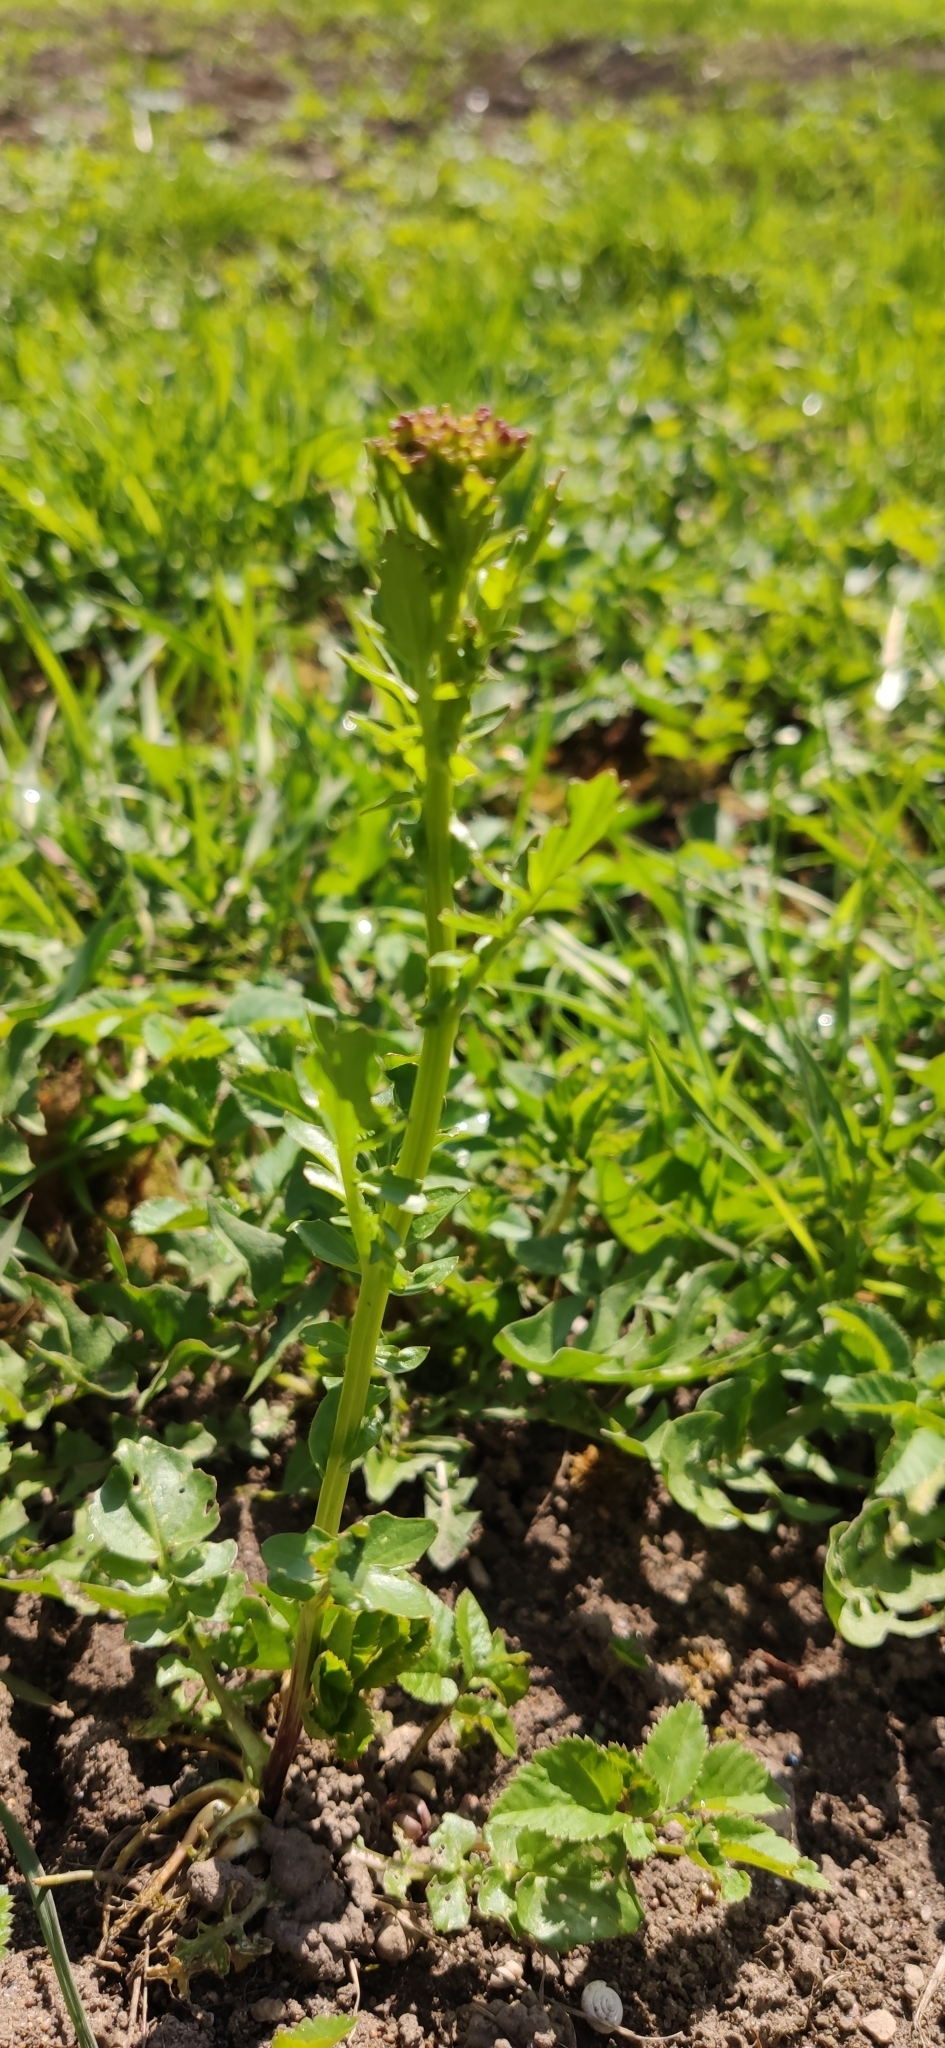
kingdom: Plantae
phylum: Tracheophyta
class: Magnoliopsida
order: Brassicales
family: Brassicaceae
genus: Barbarea
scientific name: Barbarea vulgaris
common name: Cressy-greens
